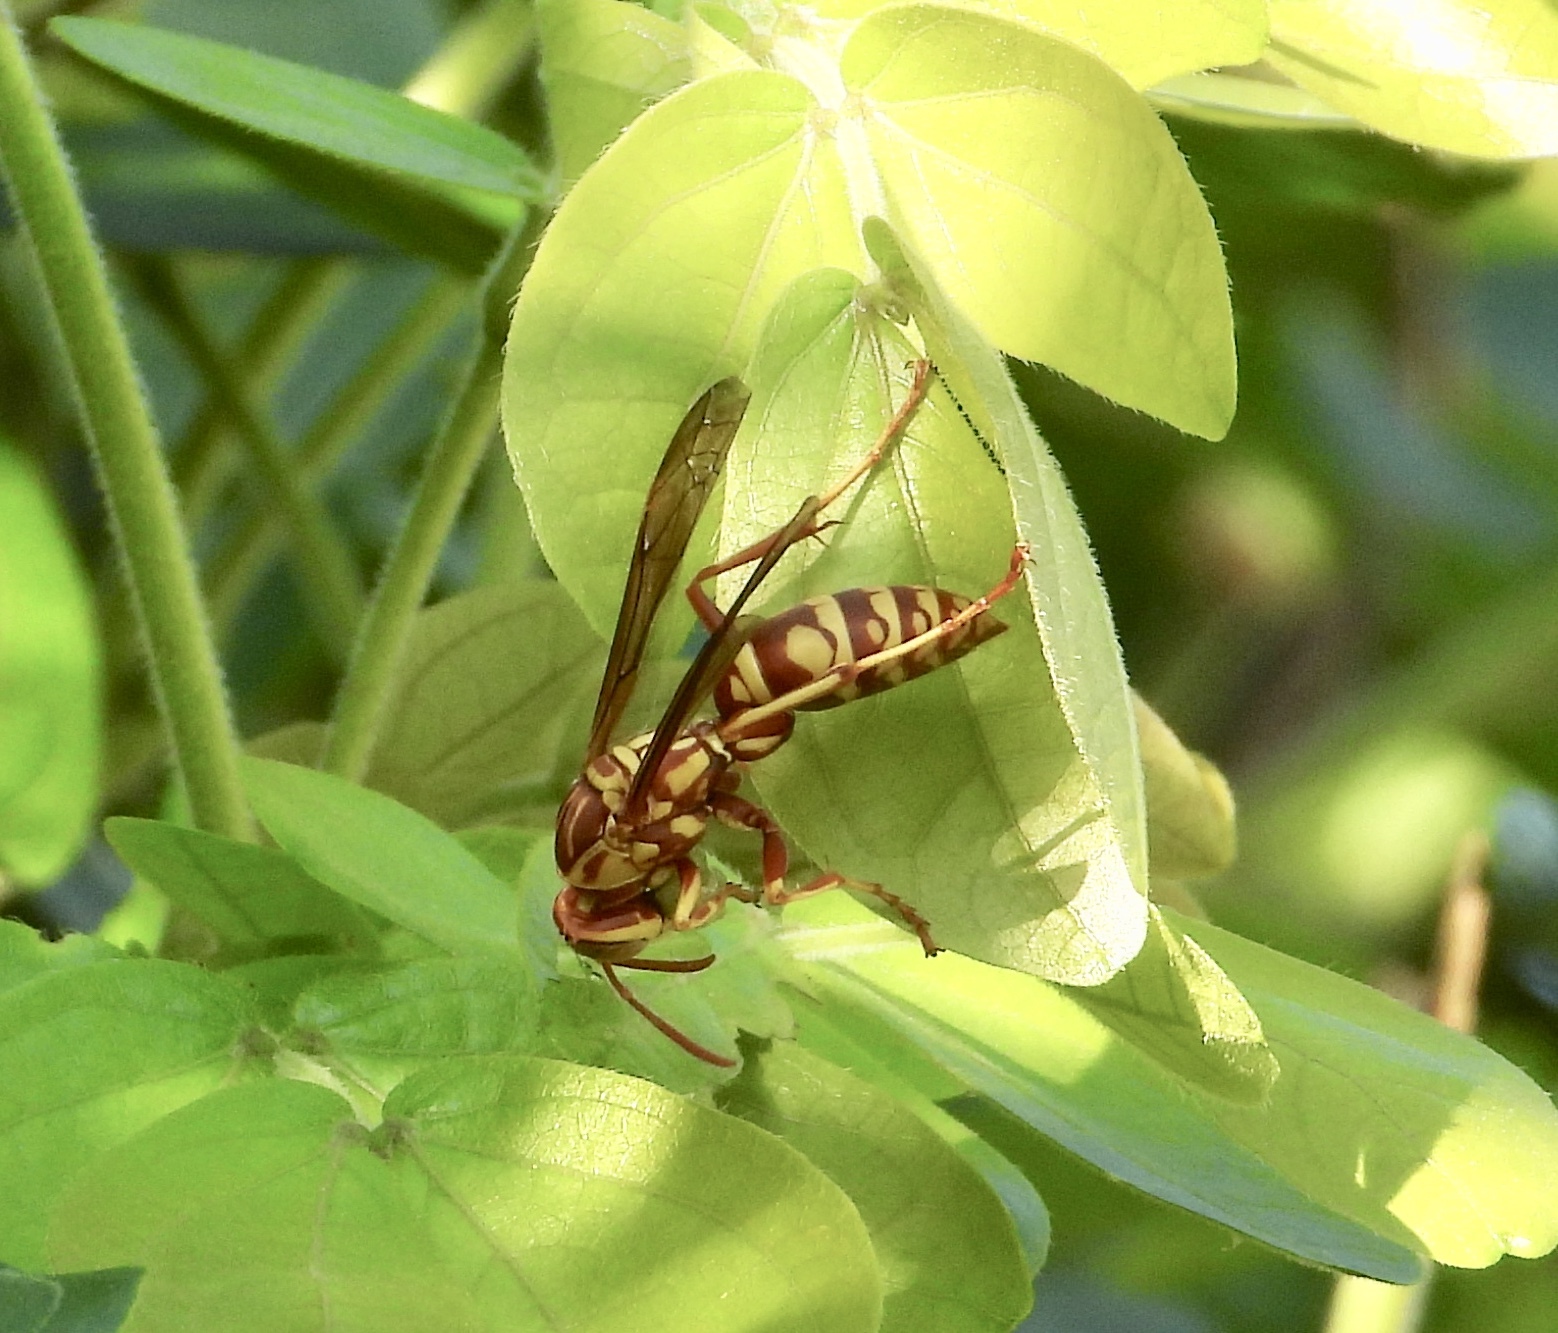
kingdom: Animalia
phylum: Arthropoda
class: Insecta
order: Hymenoptera
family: Eumenidae
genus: Polistes
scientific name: Polistes apachus
